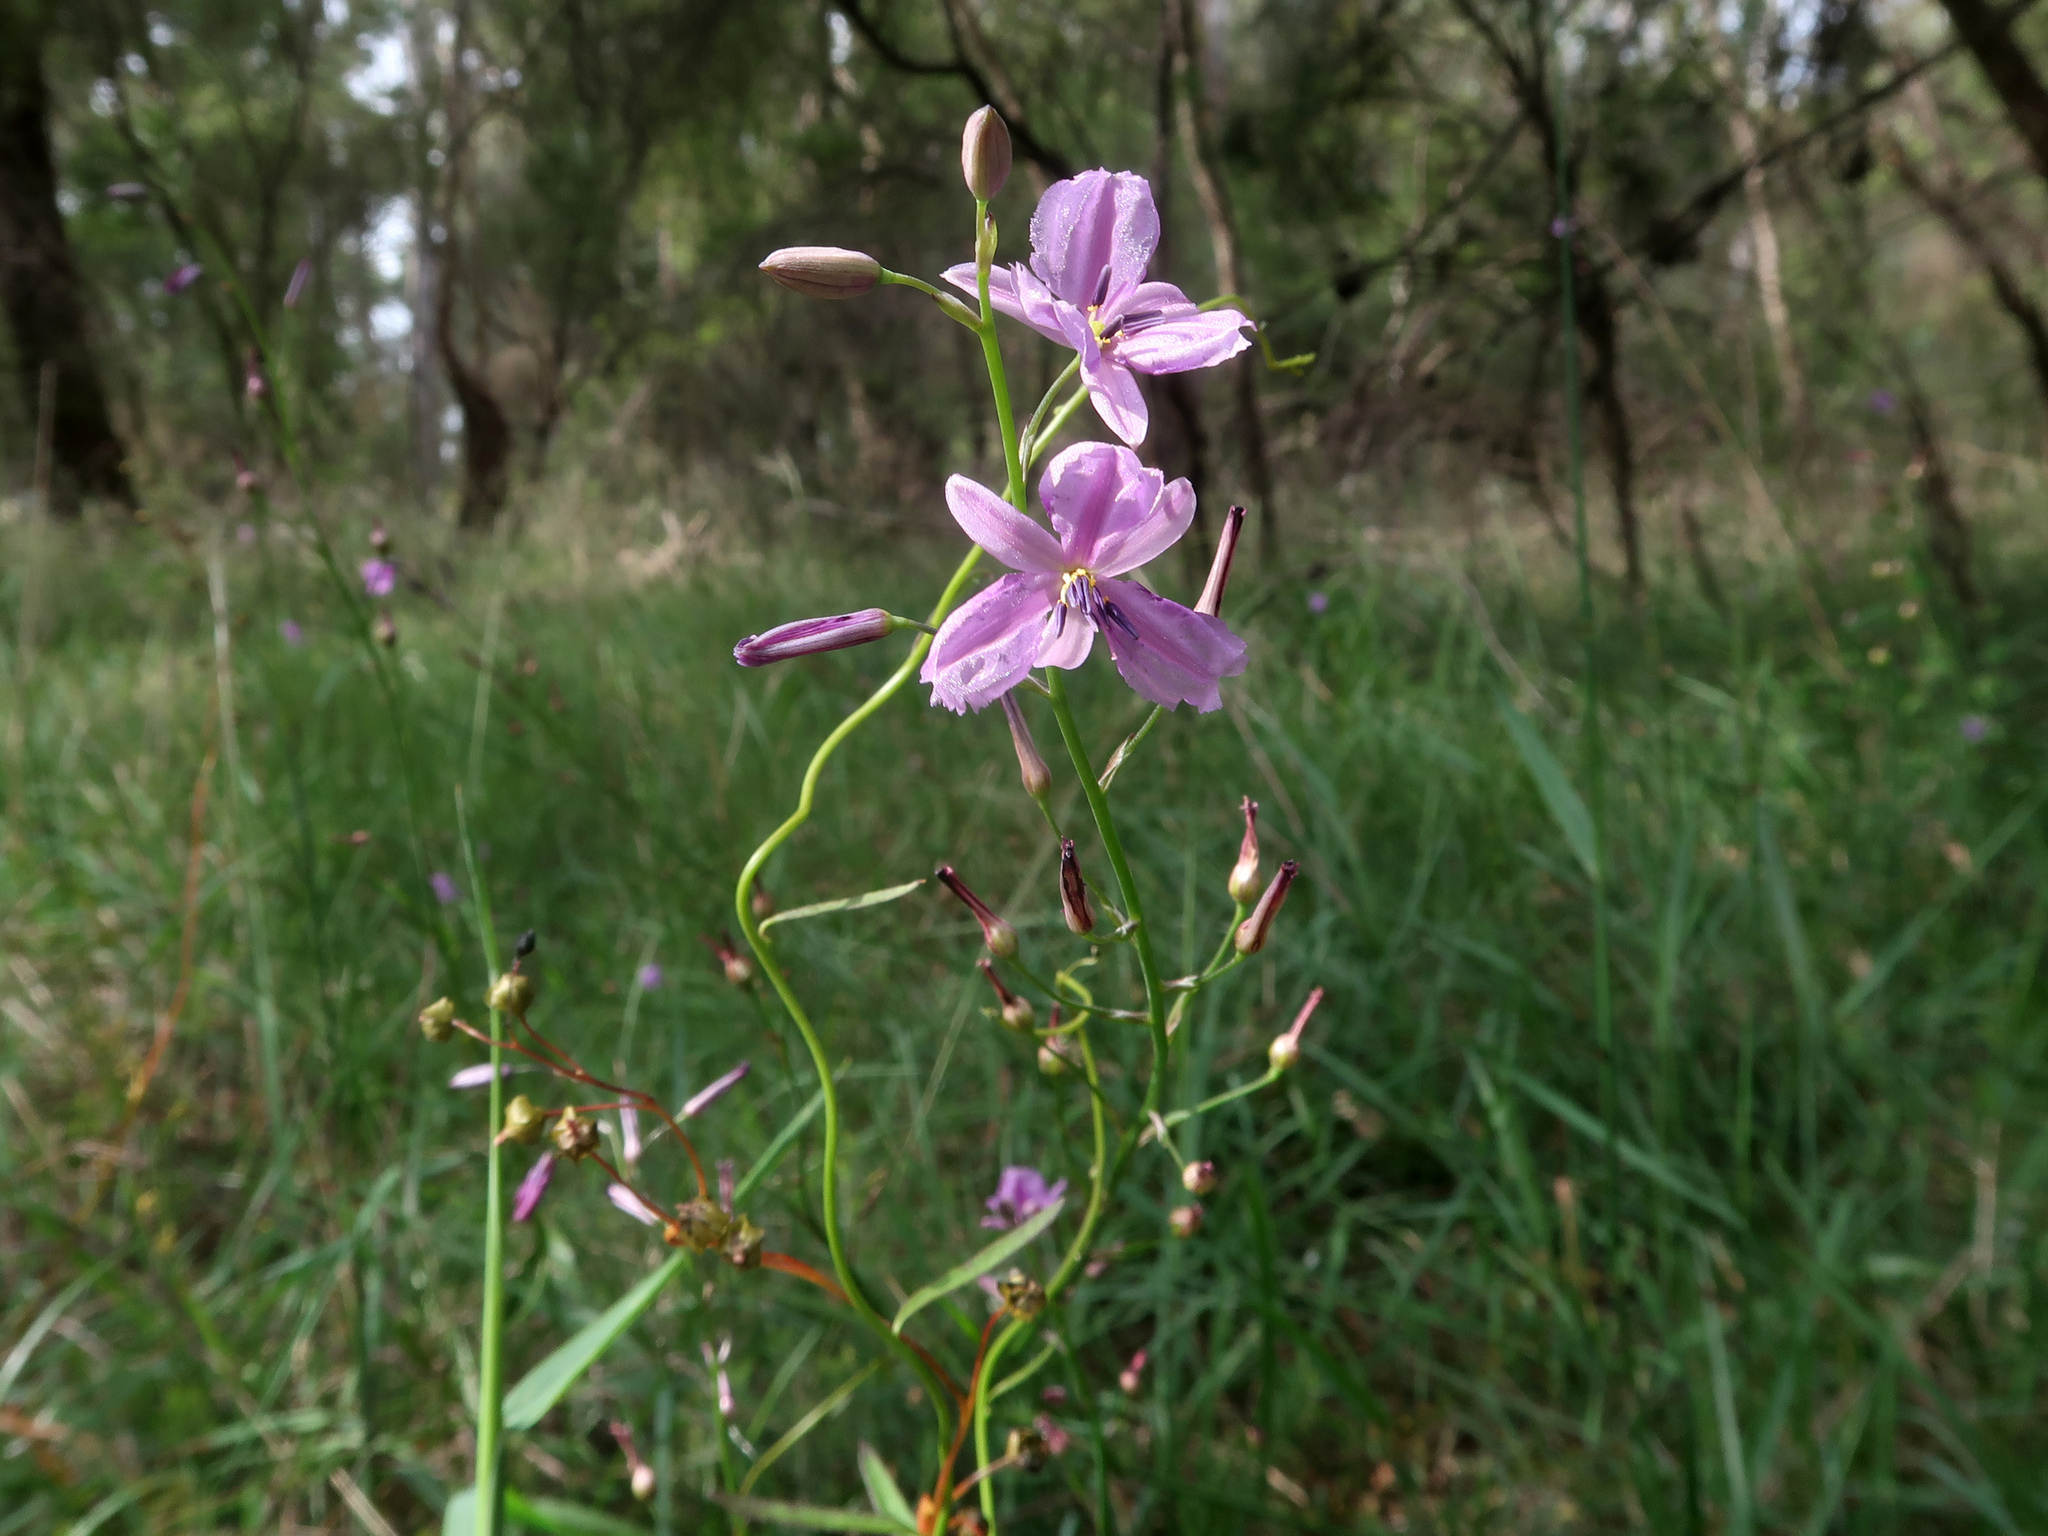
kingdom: Plantae
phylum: Tracheophyta
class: Liliopsida
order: Asparagales
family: Asparagaceae
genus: Arthropodium
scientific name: Arthropodium strictum
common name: Chocolate-lily
